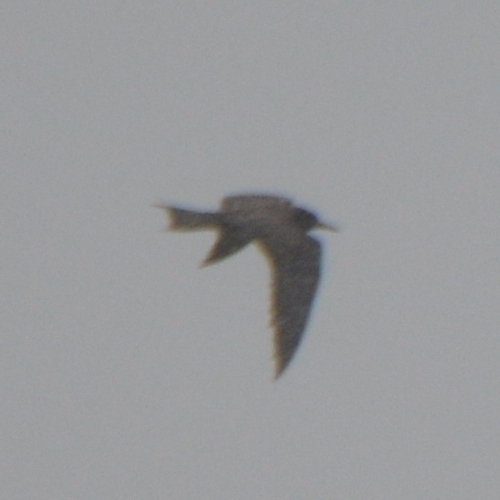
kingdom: Animalia
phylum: Chordata
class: Aves
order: Charadriiformes
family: Laridae
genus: Onychoprion
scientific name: Onychoprion fuscatus
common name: Sooty tern
